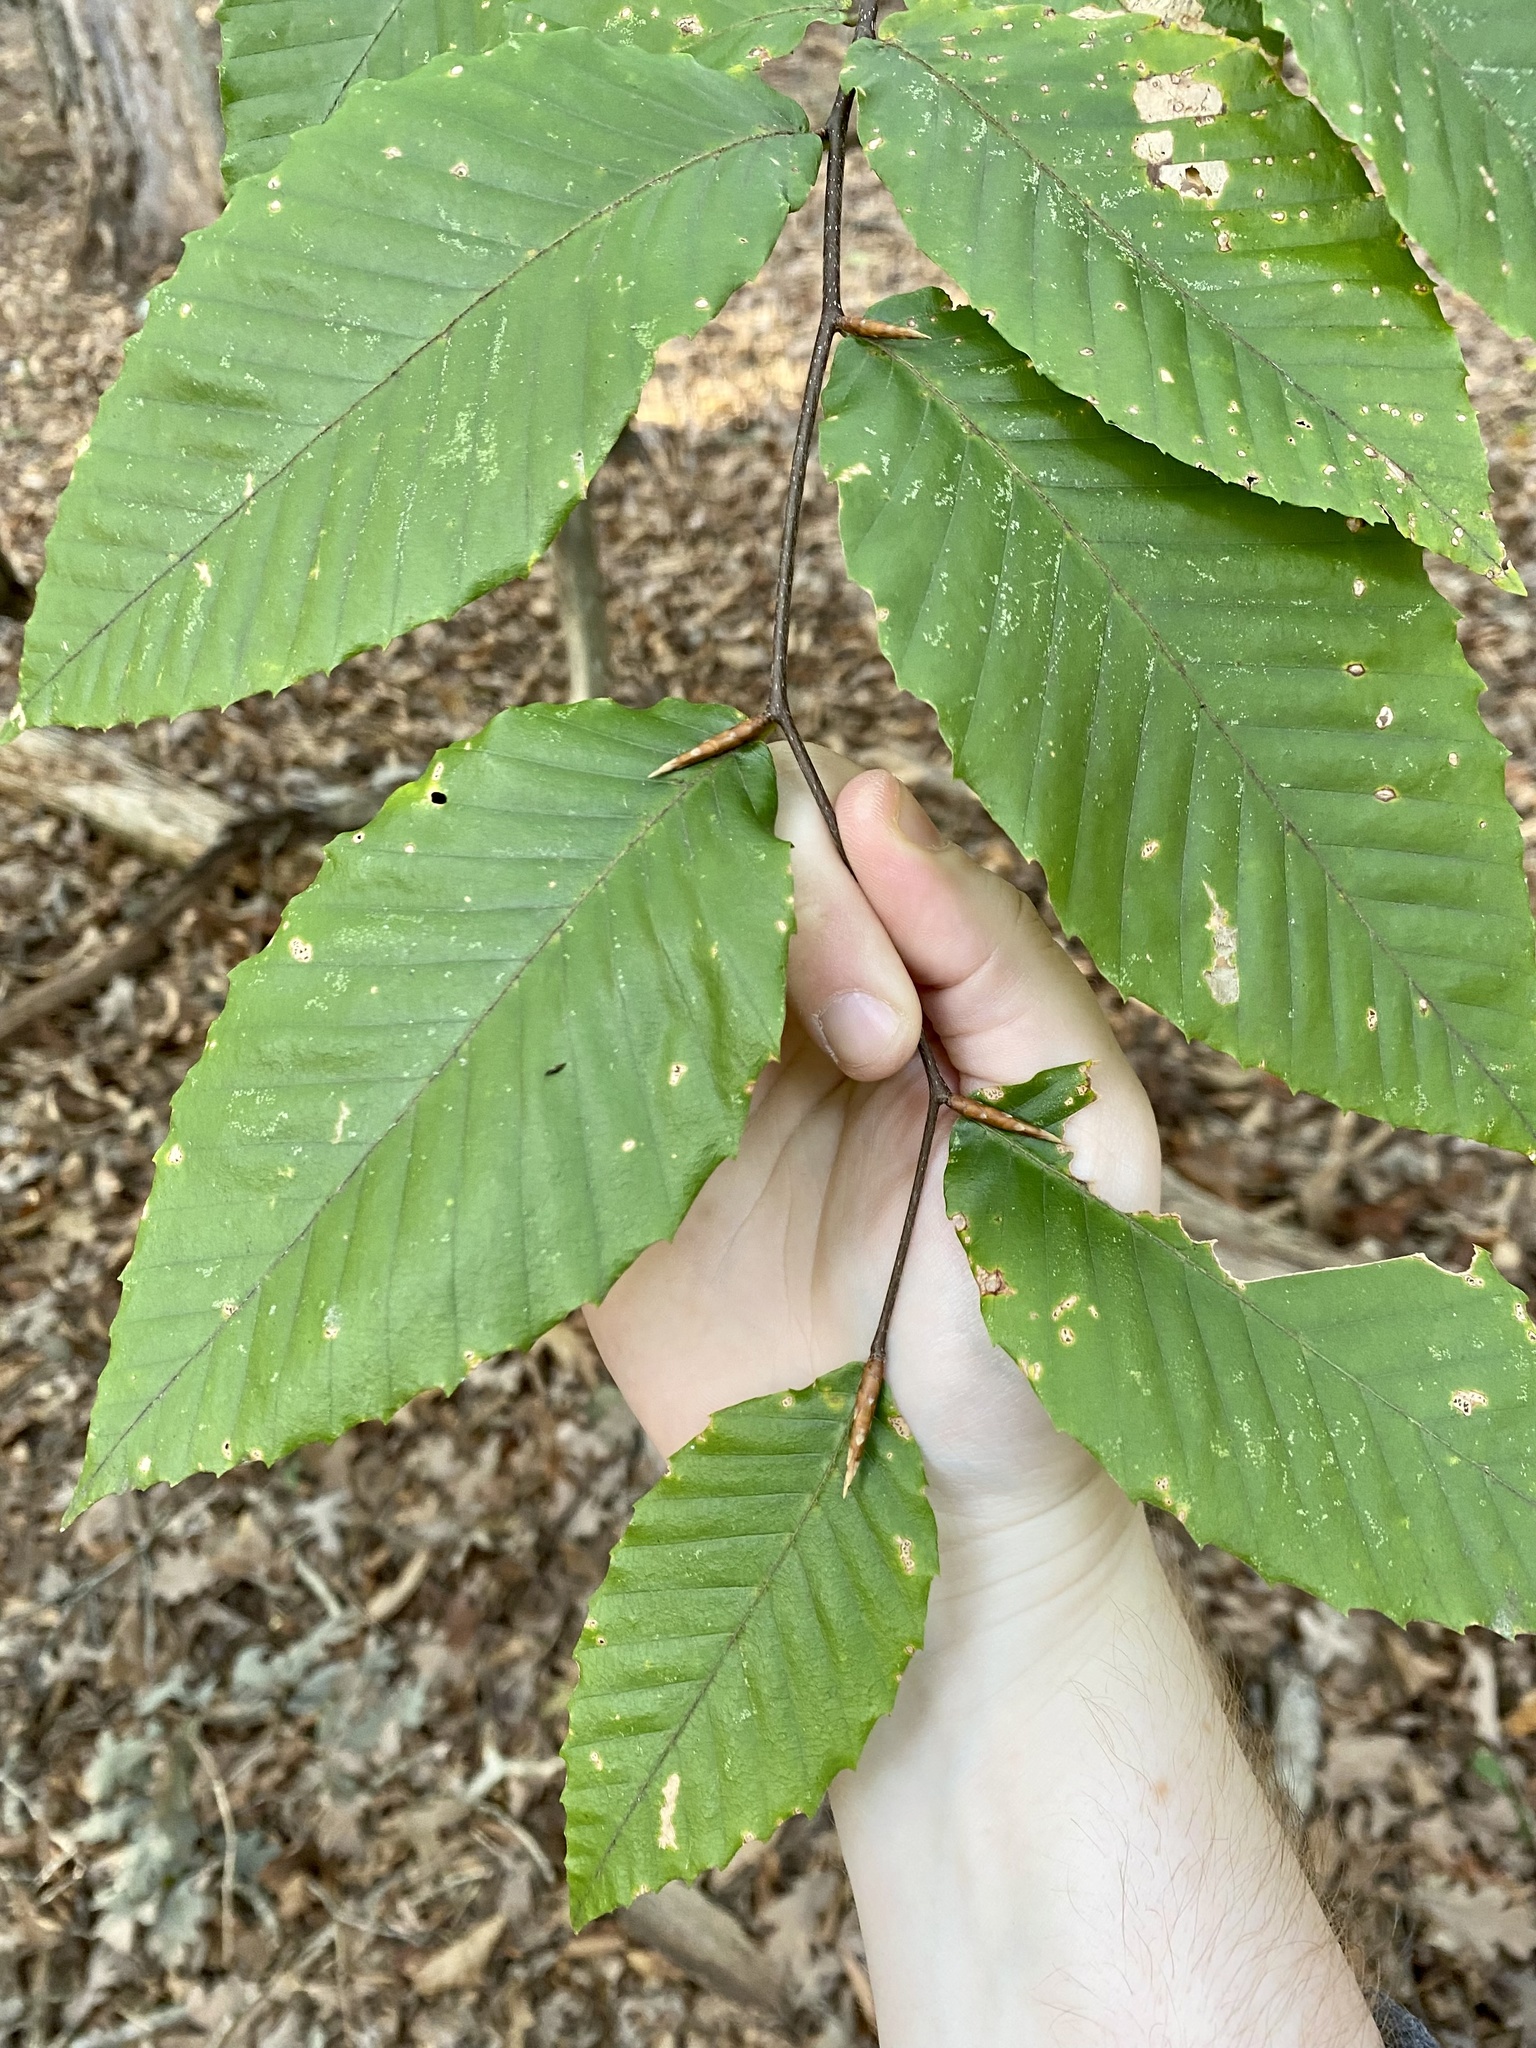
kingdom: Plantae
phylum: Tracheophyta
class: Magnoliopsida
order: Fagales
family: Fagaceae
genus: Fagus
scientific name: Fagus grandifolia
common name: American beech
